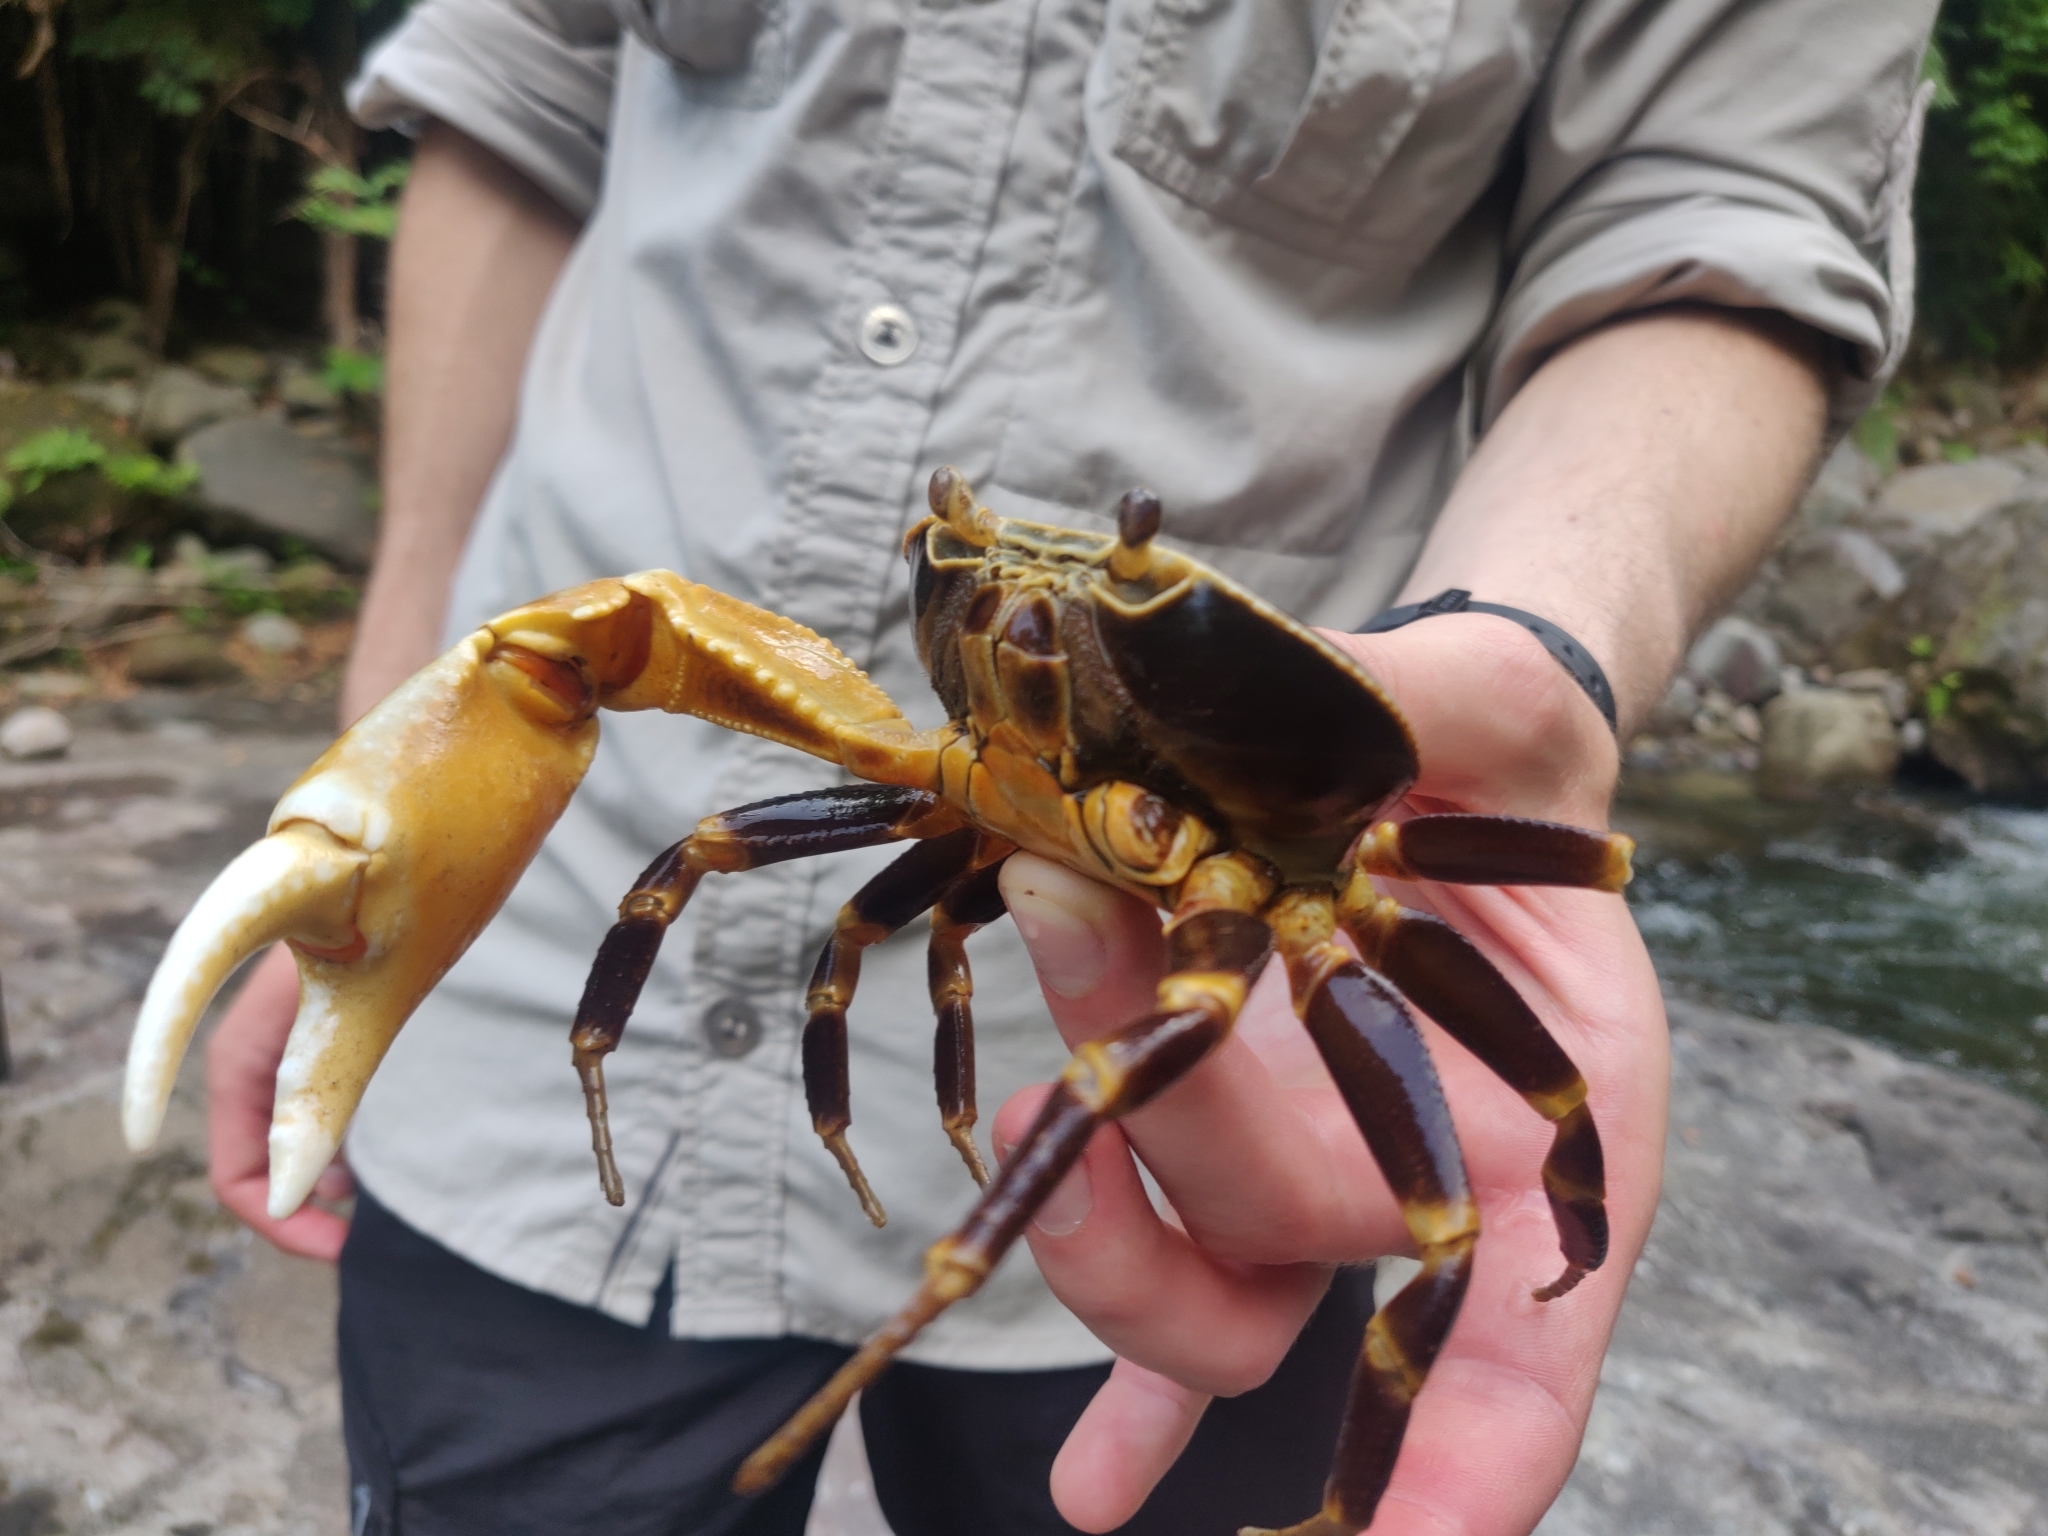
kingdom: Animalia
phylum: Arthropoda
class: Malacostraca
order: Decapoda
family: Pseudothelphusidae
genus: Guinotia
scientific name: Guinotia dentata
